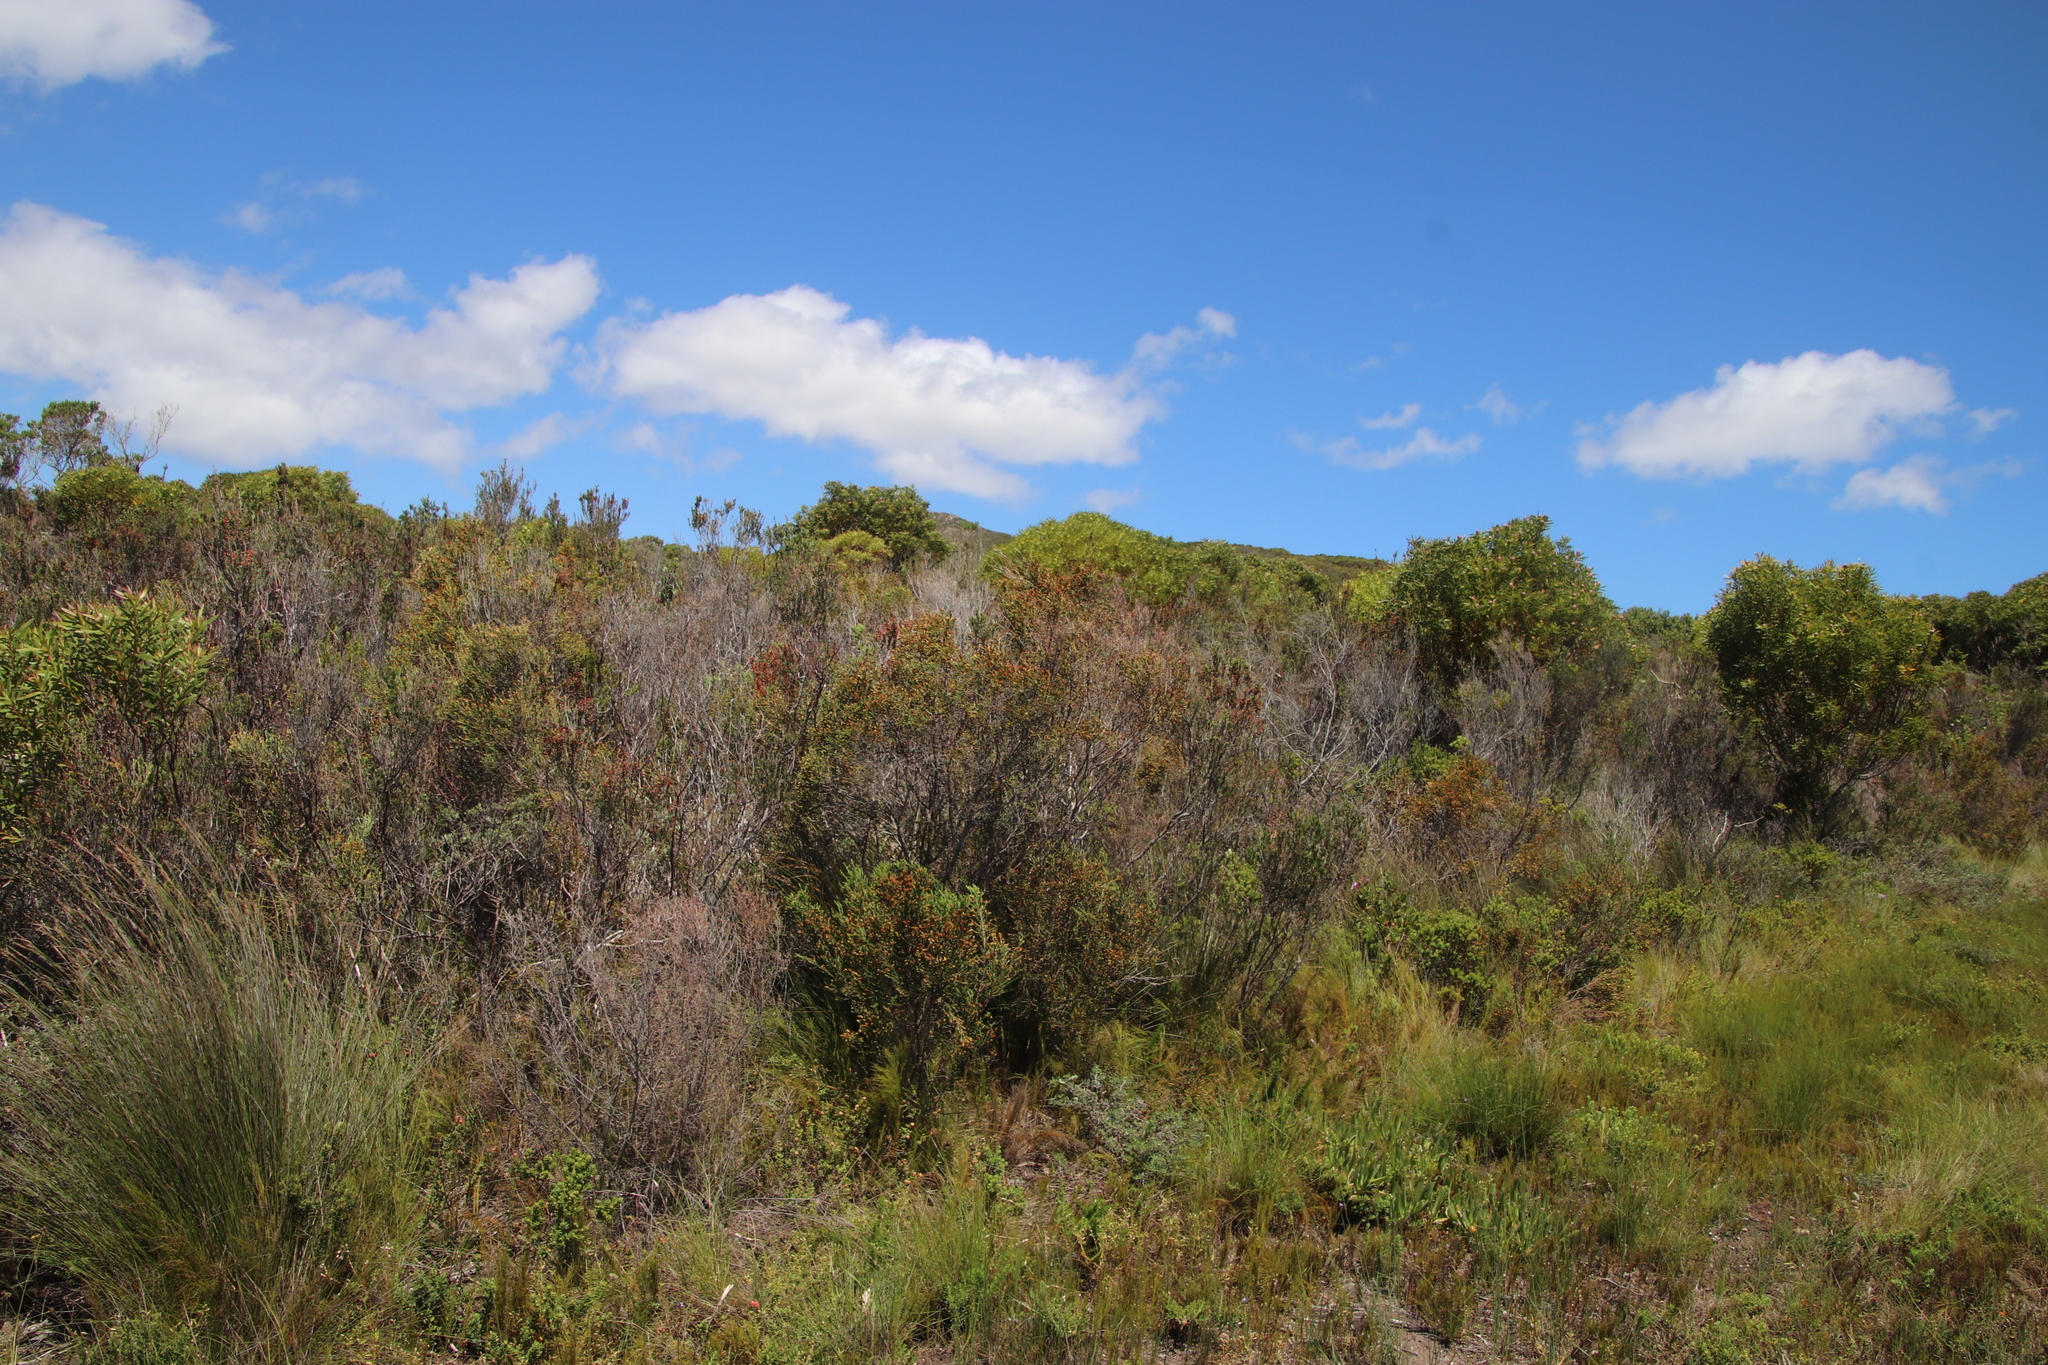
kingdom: Plantae
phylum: Tracheophyta
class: Magnoliopsida
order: Malvales
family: Thymelaeaceae
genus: Passerina
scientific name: Passerina corymbosa
